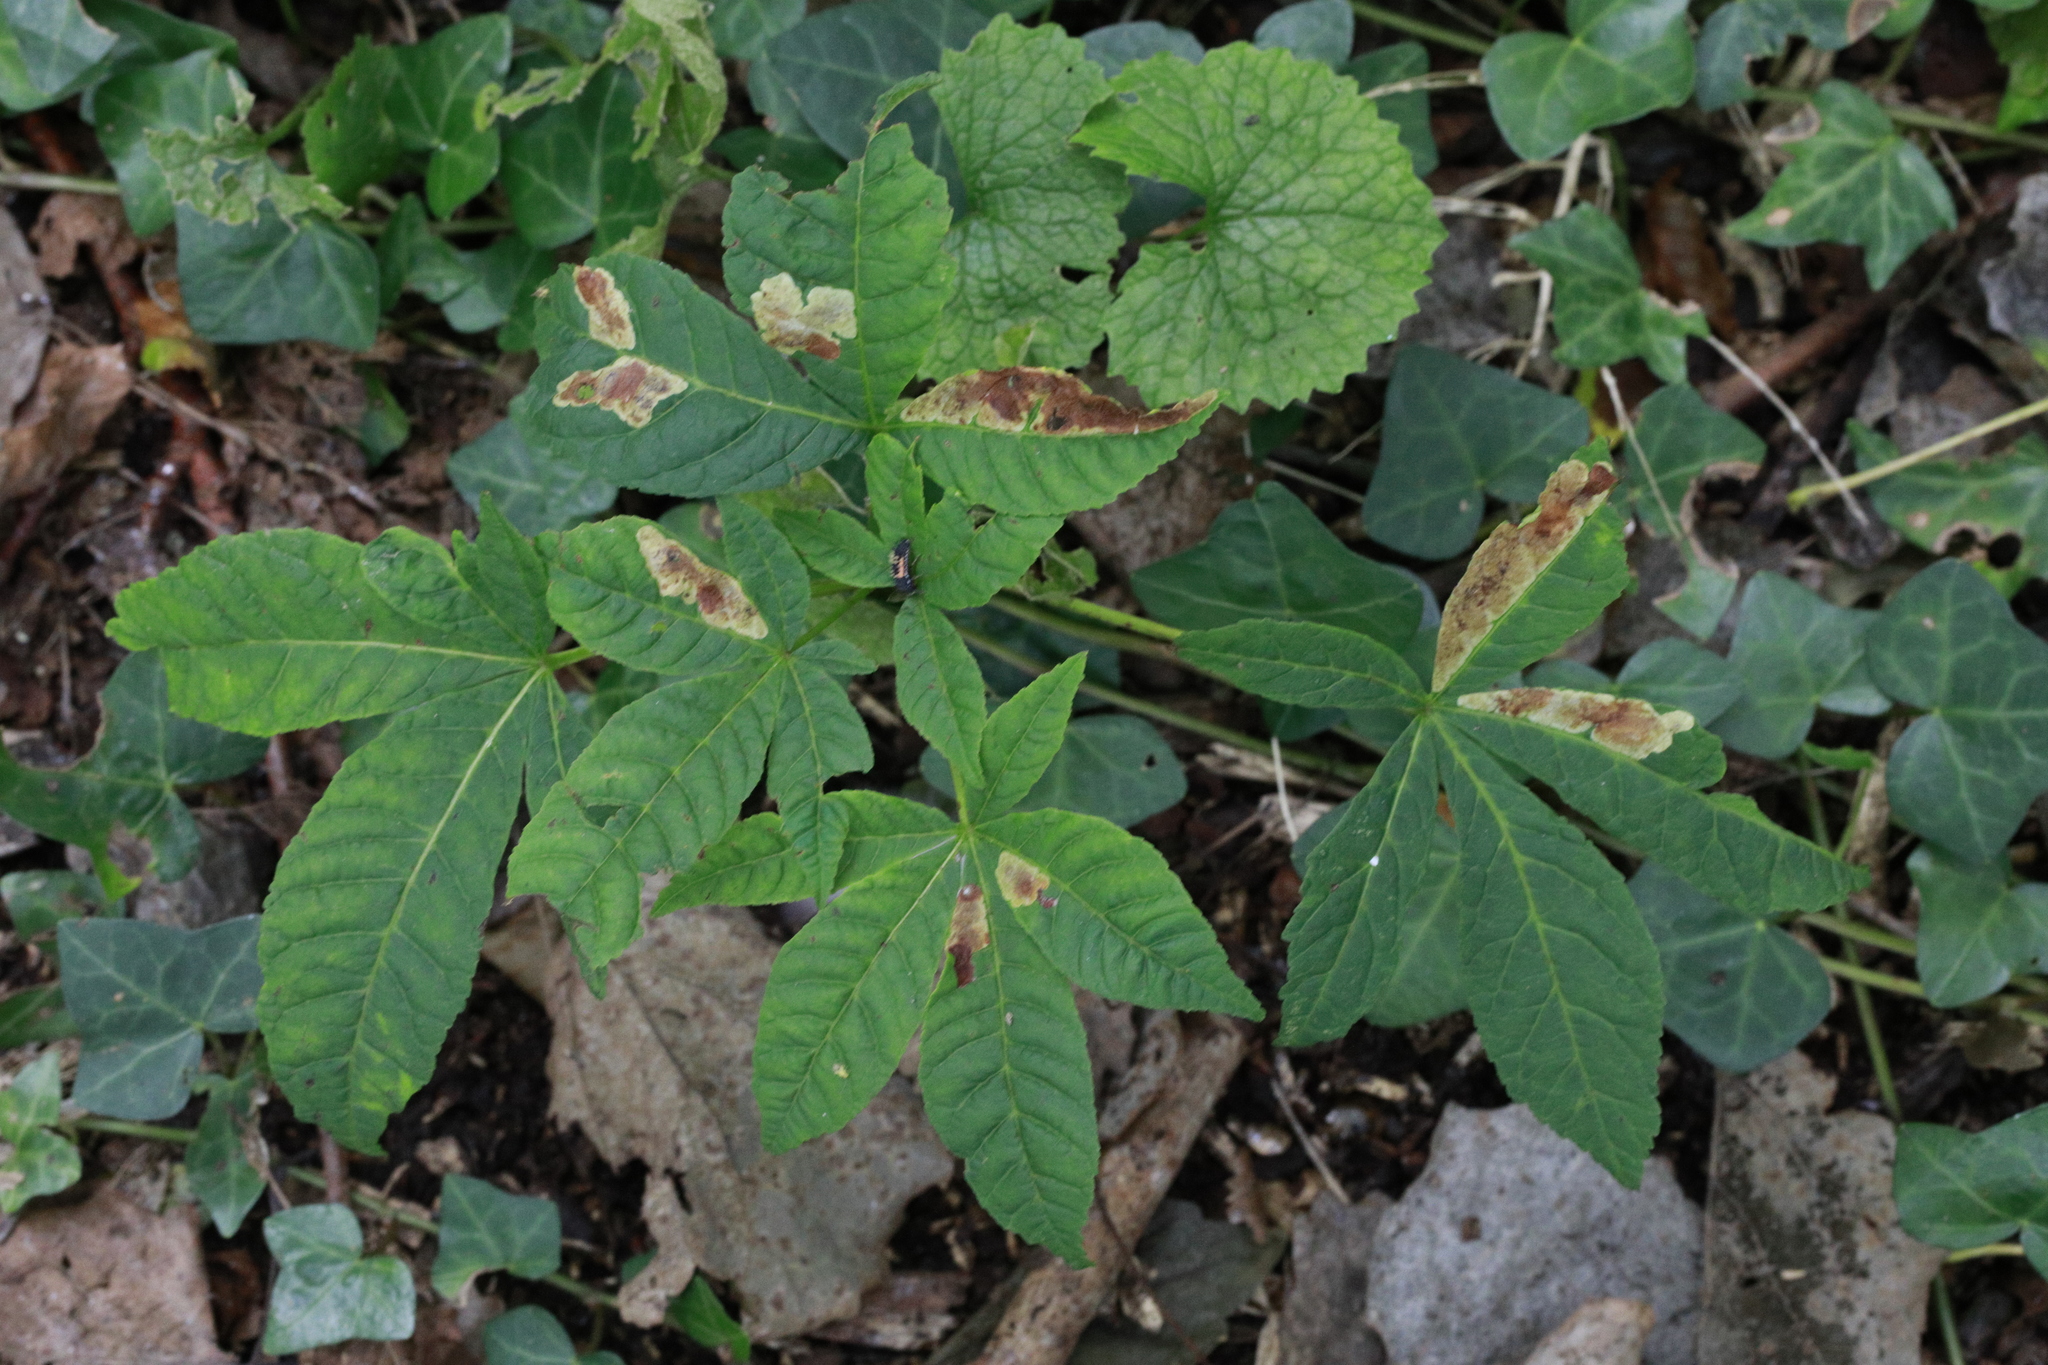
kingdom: Plantae
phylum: Tracheophyta
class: Magnoliopsida
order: Sapindales
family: Sapindaceae
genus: Aesculus
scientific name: Aesculus hippocastanum
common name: Horse-chestnut
